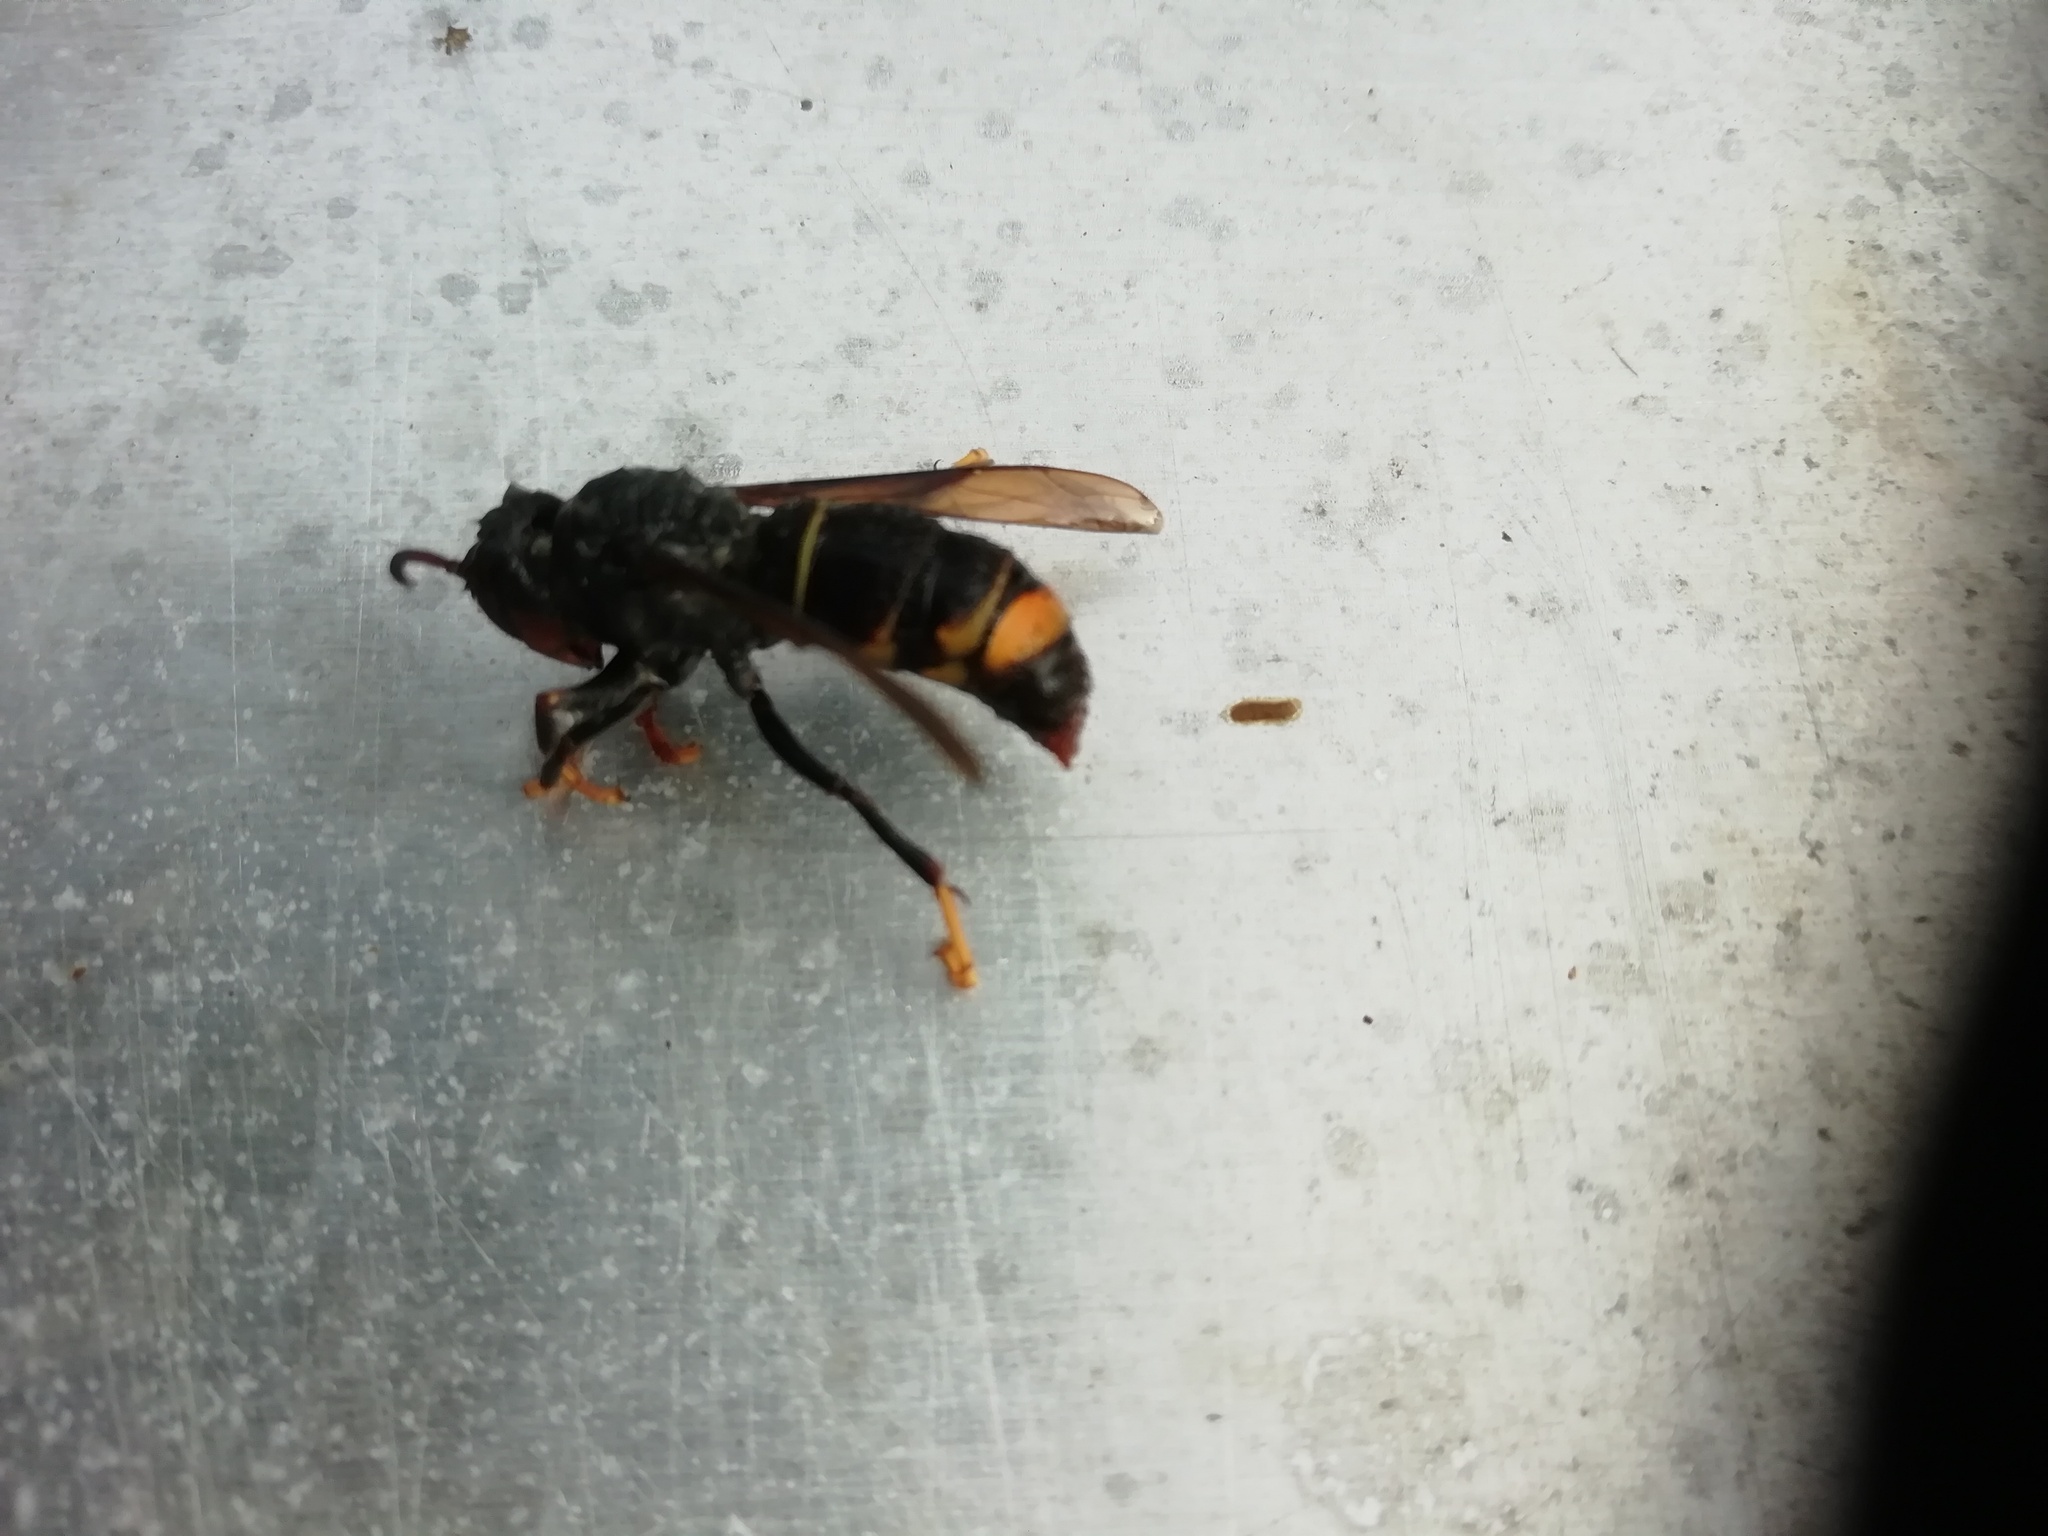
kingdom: Animalia
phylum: Arthropoda
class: Insecta
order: Hymenoptera
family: Vespidae
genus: Vespa
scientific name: Vespa velutina
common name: Asian hornet
